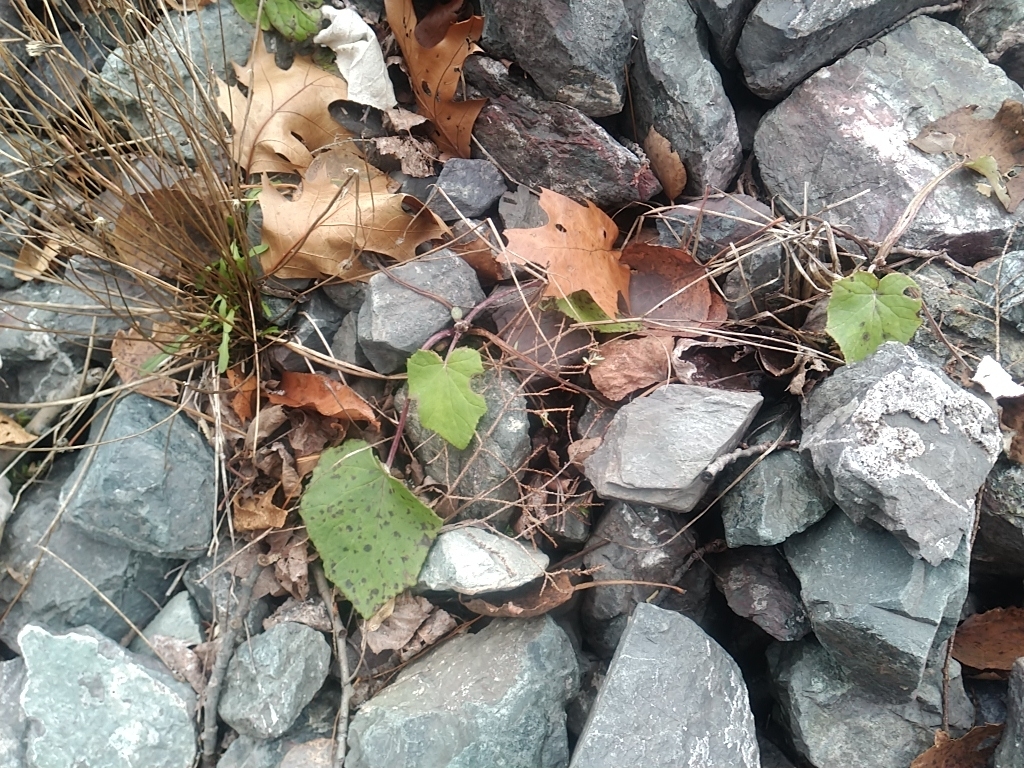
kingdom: Plantae
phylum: Tracheophyta
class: Magnoliopsida
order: Asterales
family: Asteraceae
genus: Tussilago
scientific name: Tussilago farfara
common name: Coltsfoot
